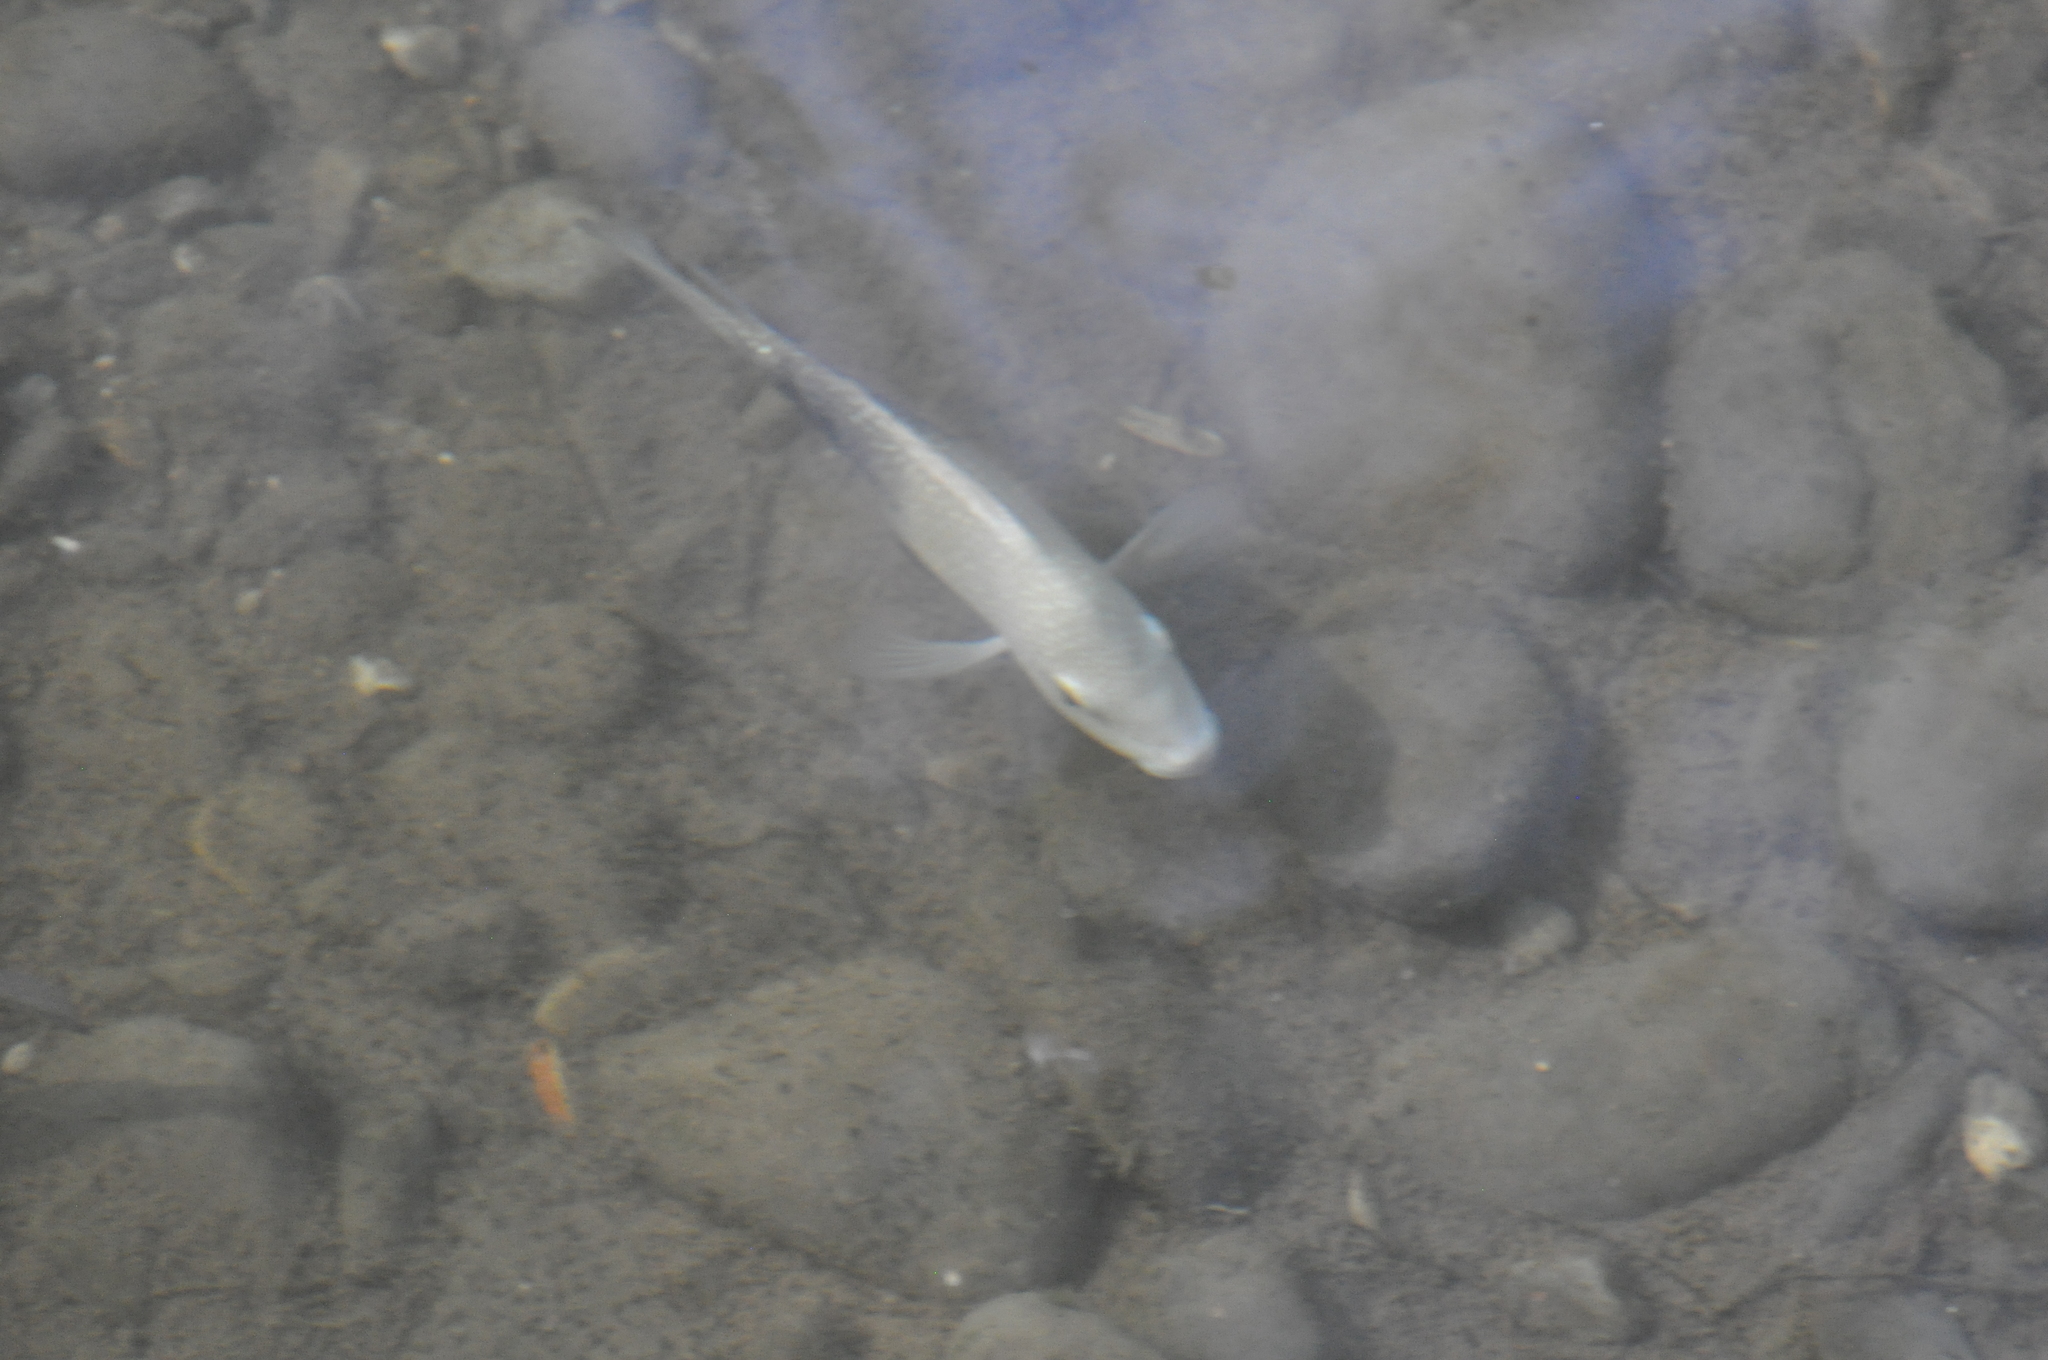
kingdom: Animalia
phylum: Chordata
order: Perciformes
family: Cichlidae
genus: Herichthys
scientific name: Herichthys cyanoguttatus
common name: Rio grande cichlid
